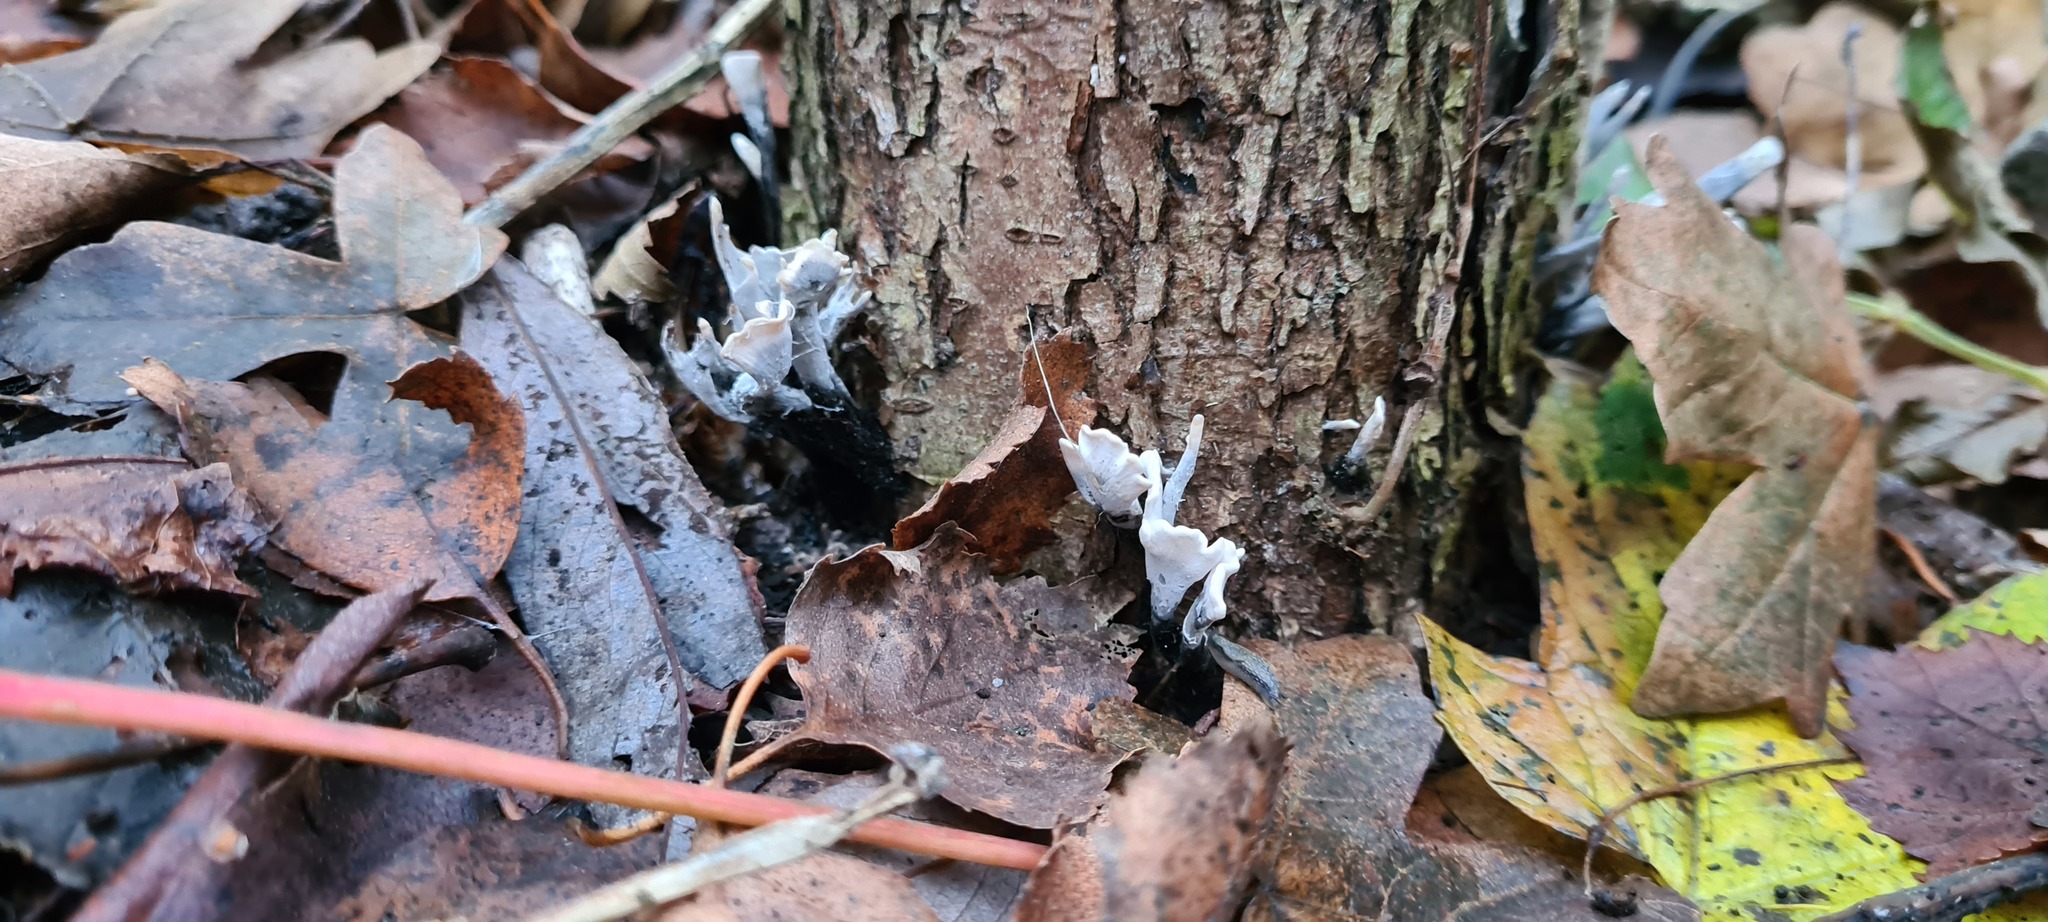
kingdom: Fungi
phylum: Ascomycota
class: Sordariomycetes
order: Xylariales
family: Xylariaceae
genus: Xylaria
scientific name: Xylaria hypoxylon
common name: Candle-snuff fungus
